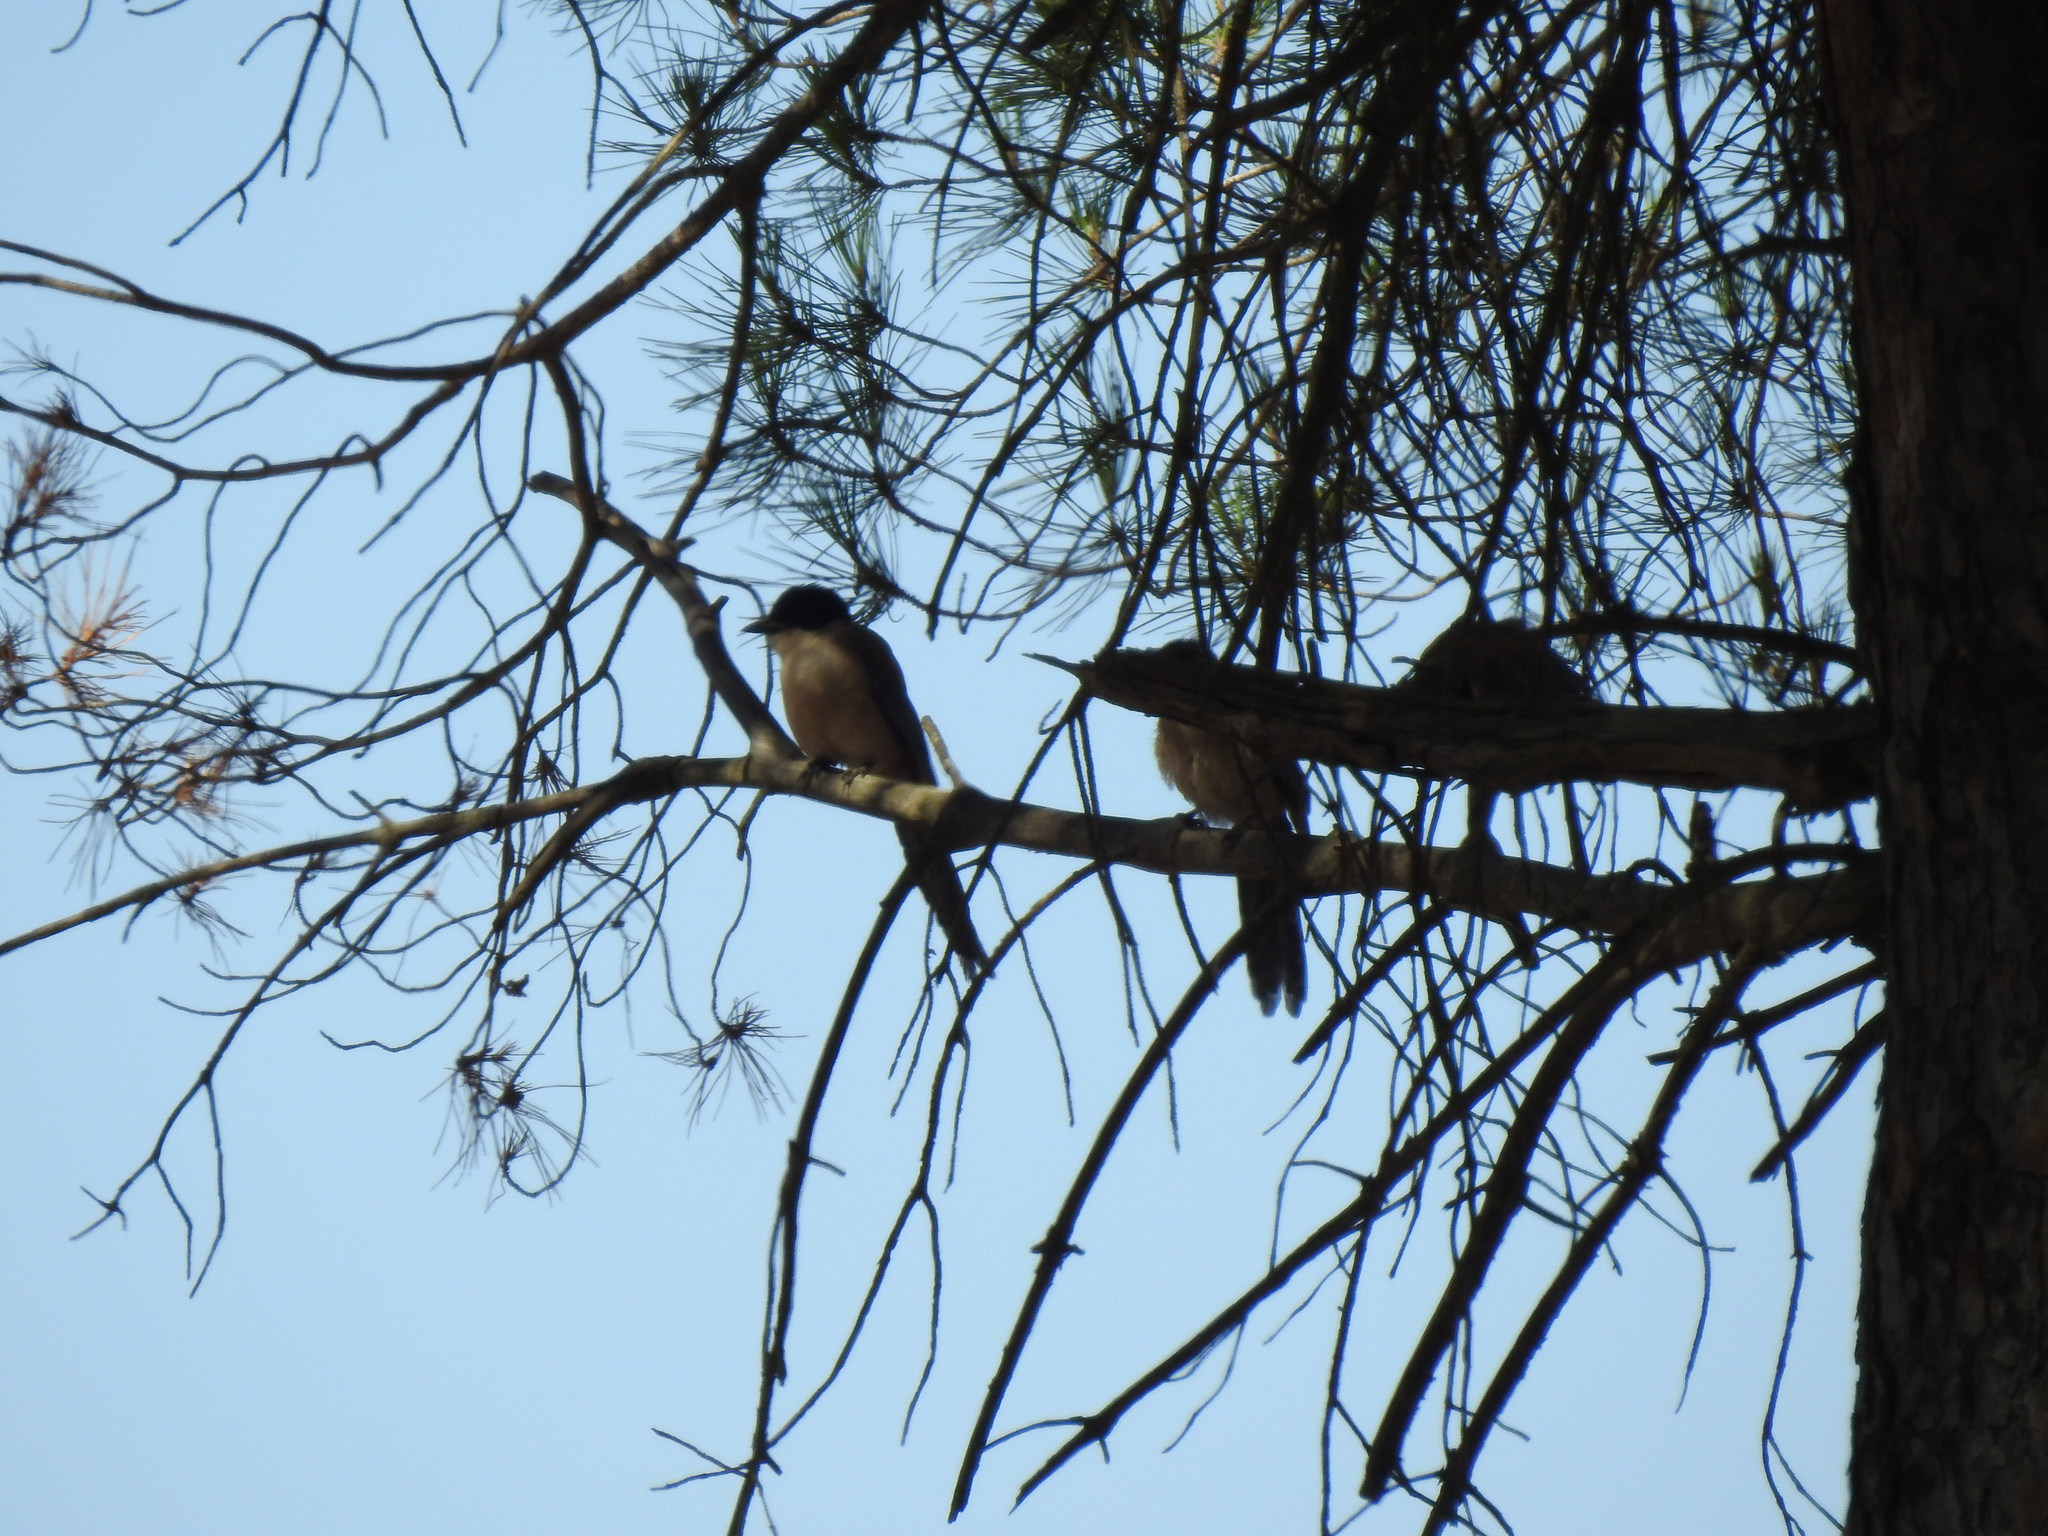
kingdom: Animalia
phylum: Chordata
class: Aves
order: Passeriformes
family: Corvidae
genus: Cyanopica
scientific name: Cyanopica cooki
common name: Iberian magpie
